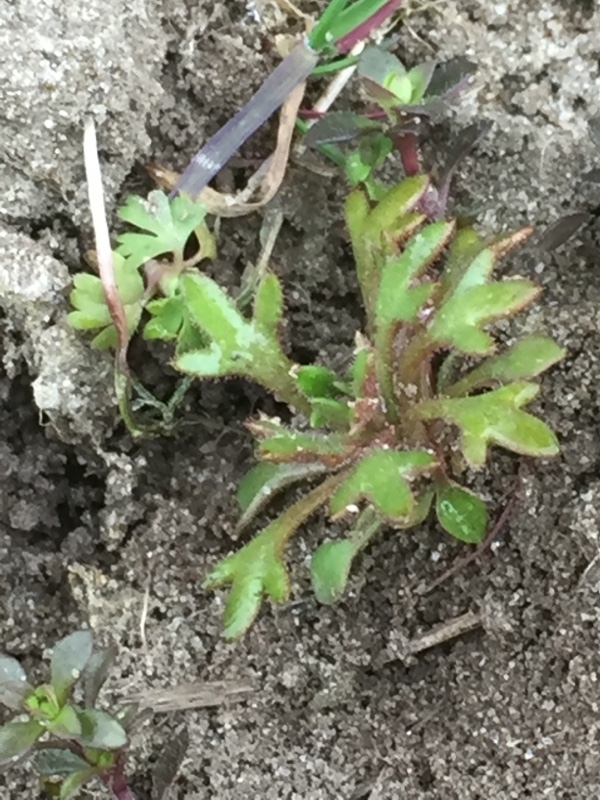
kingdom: Plantae
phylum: Tracheophyta
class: Magnoliopsida
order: Saxifragales
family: Saxifragaceae
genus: Saxifraga
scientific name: Saxifraga tridactylites
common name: Rue-leaved saxifrage
